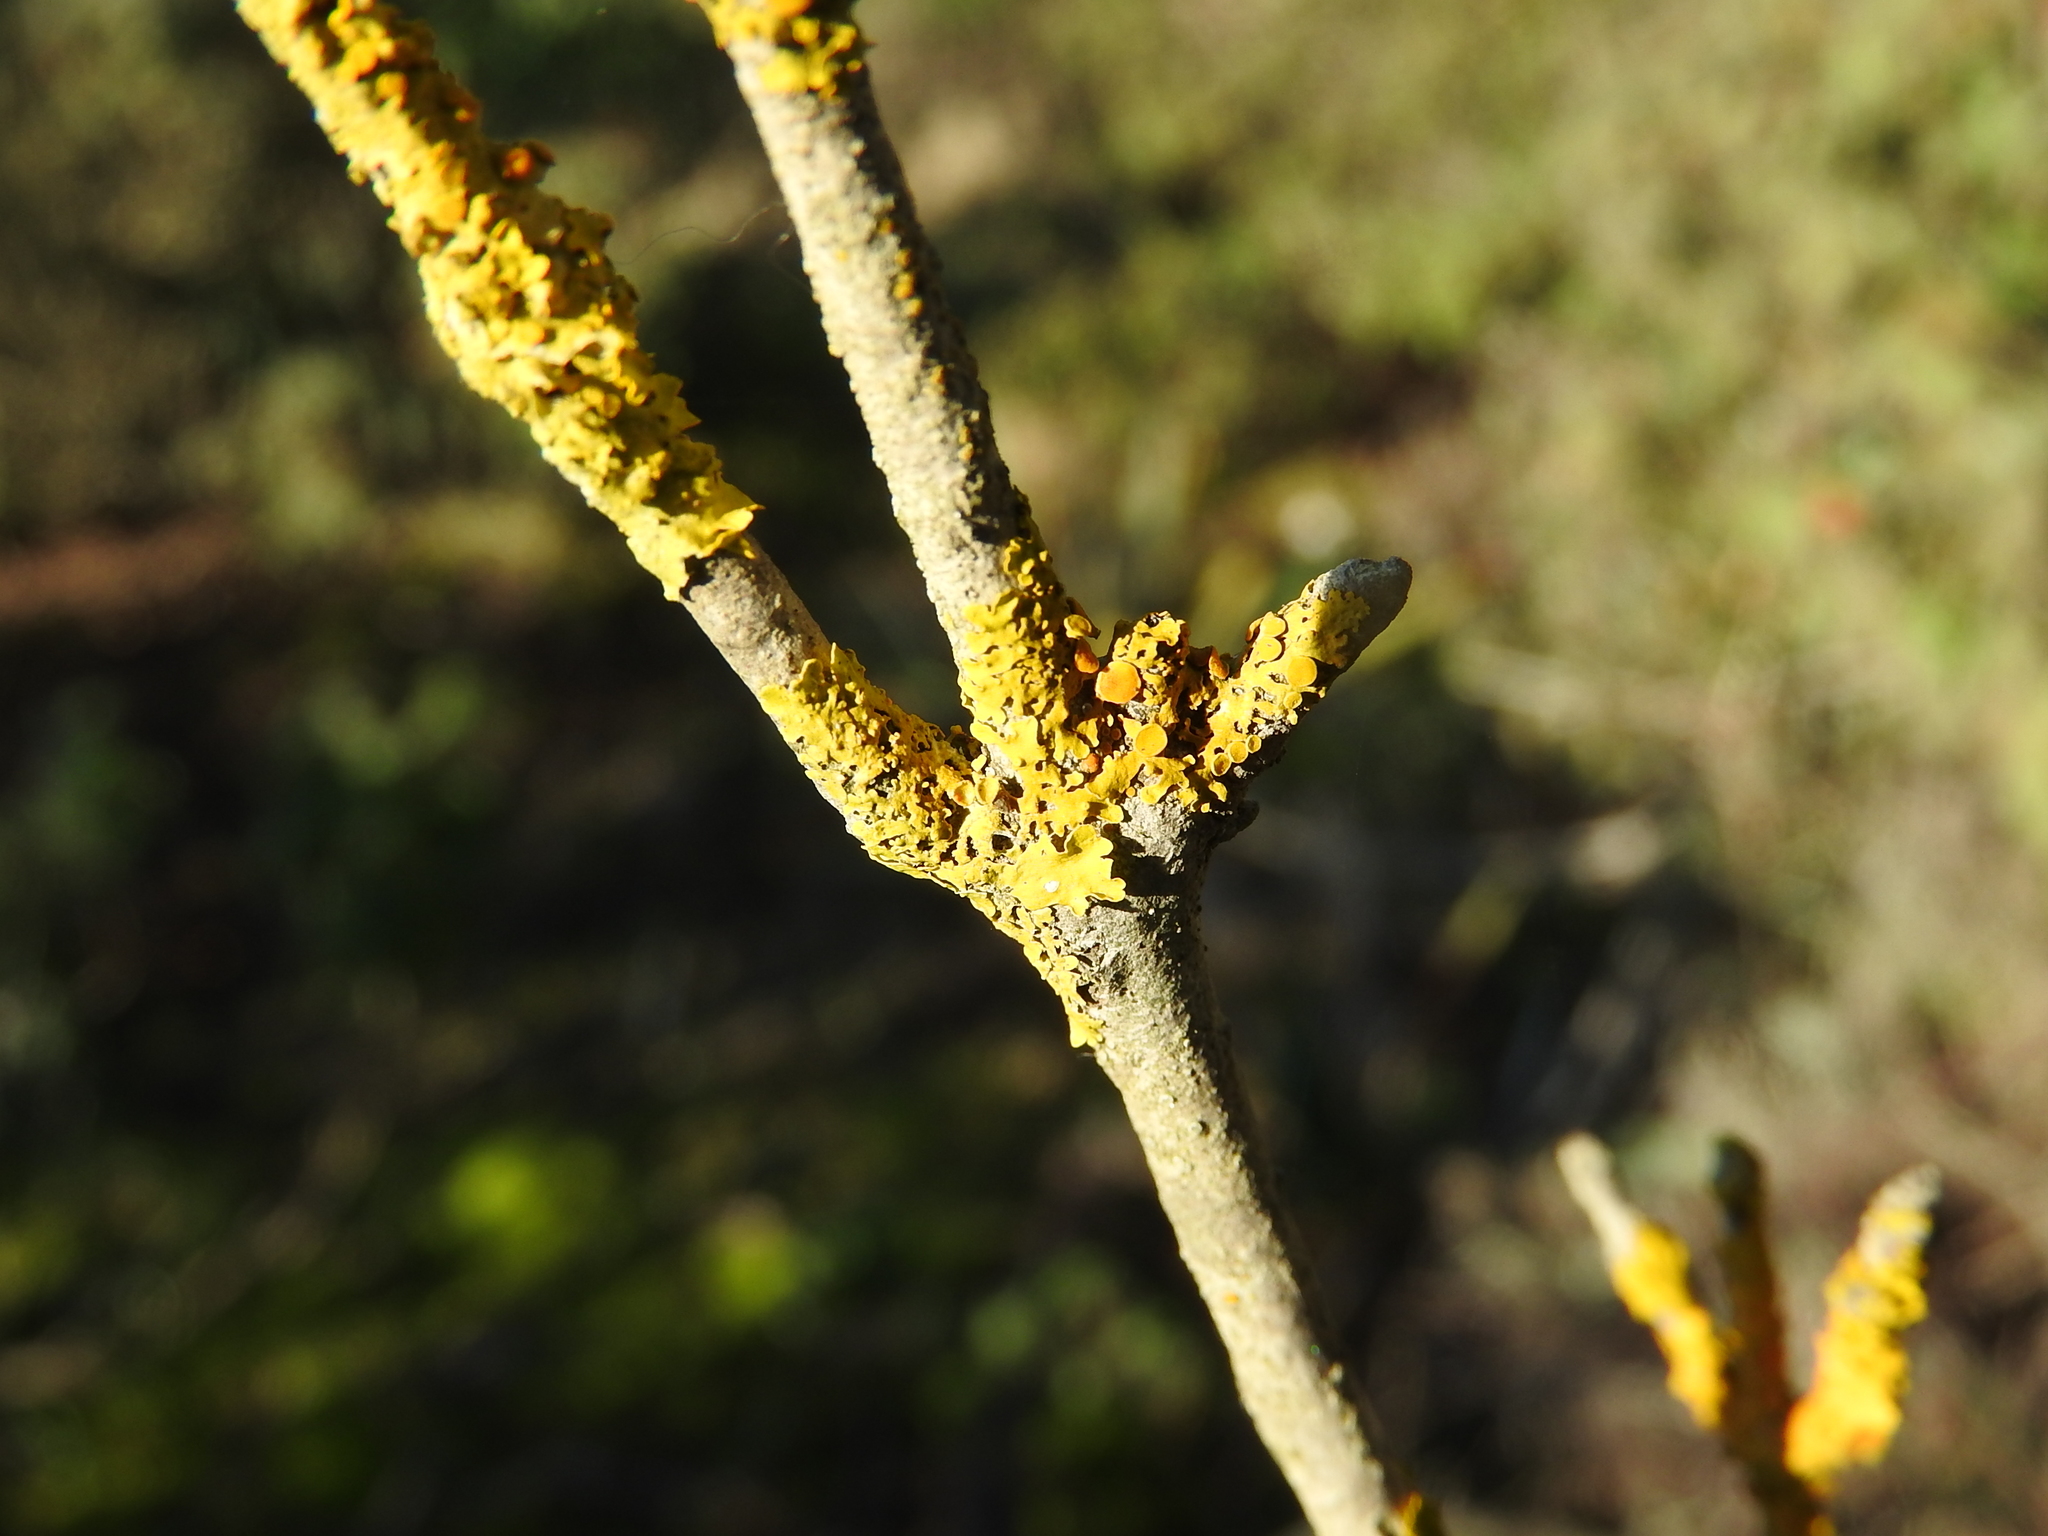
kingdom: Fungi
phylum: Ascomycota
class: Lecanoromycetes
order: Teloschistales
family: Teloschistaceae
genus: Xanthoria
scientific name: Xanthoria parietina
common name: Common orange lichen
